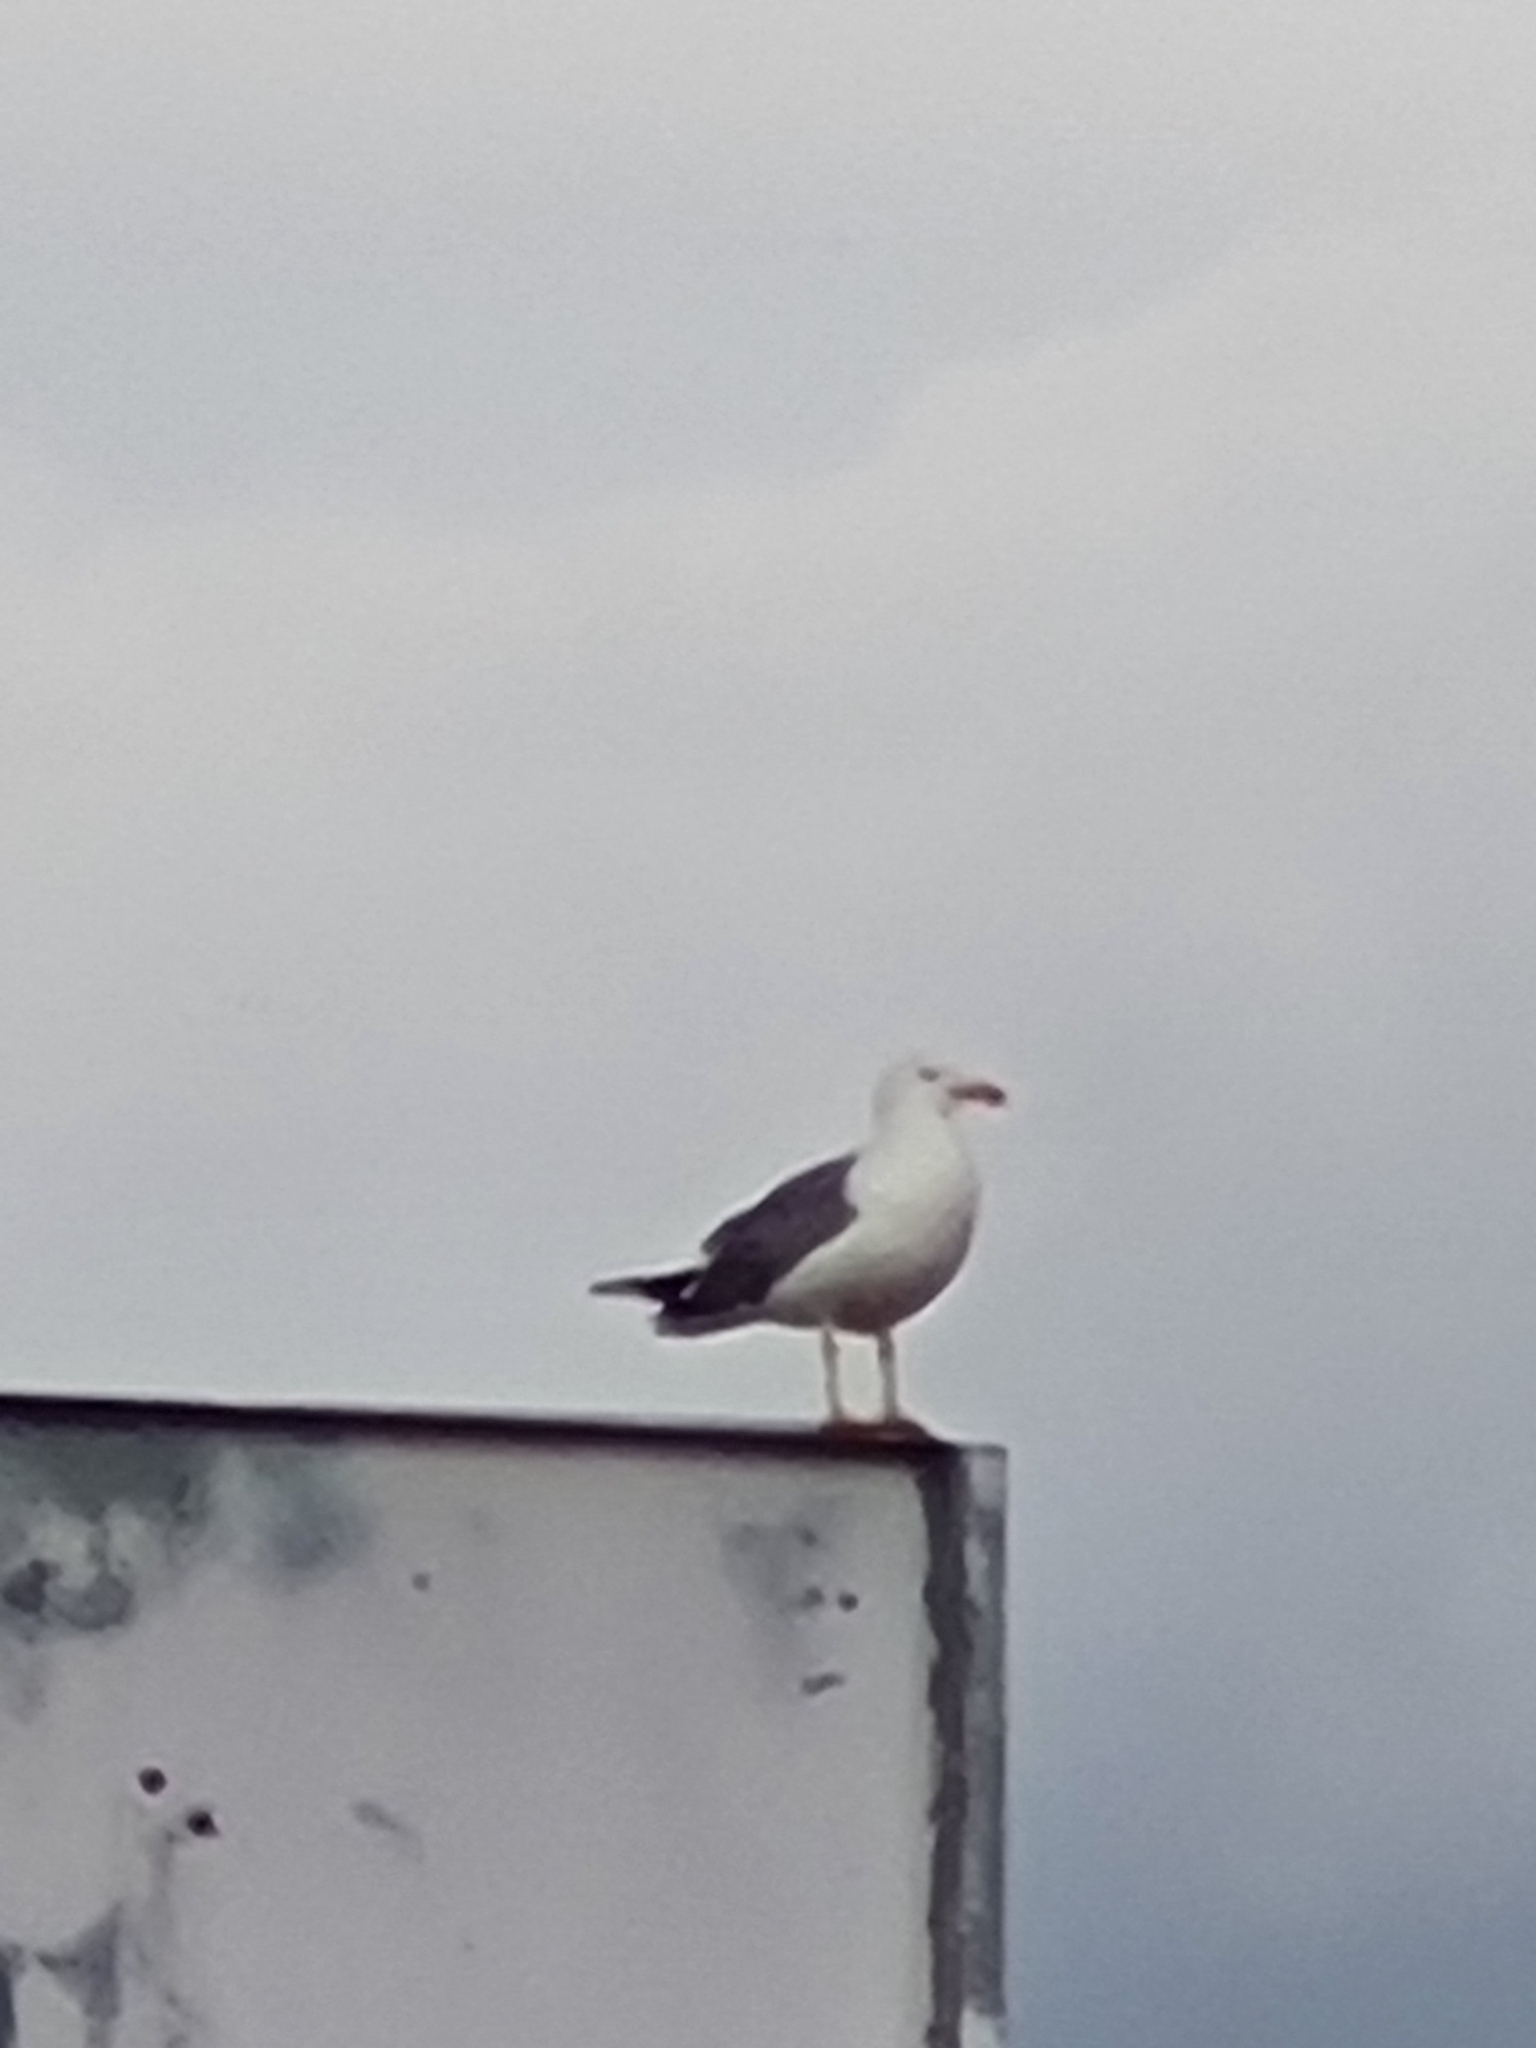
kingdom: Animalia
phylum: Chordata
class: Aves
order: Charadriiformes
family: Laridae
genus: Larus
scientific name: Larus michahellis
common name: Yellow-legged gull
